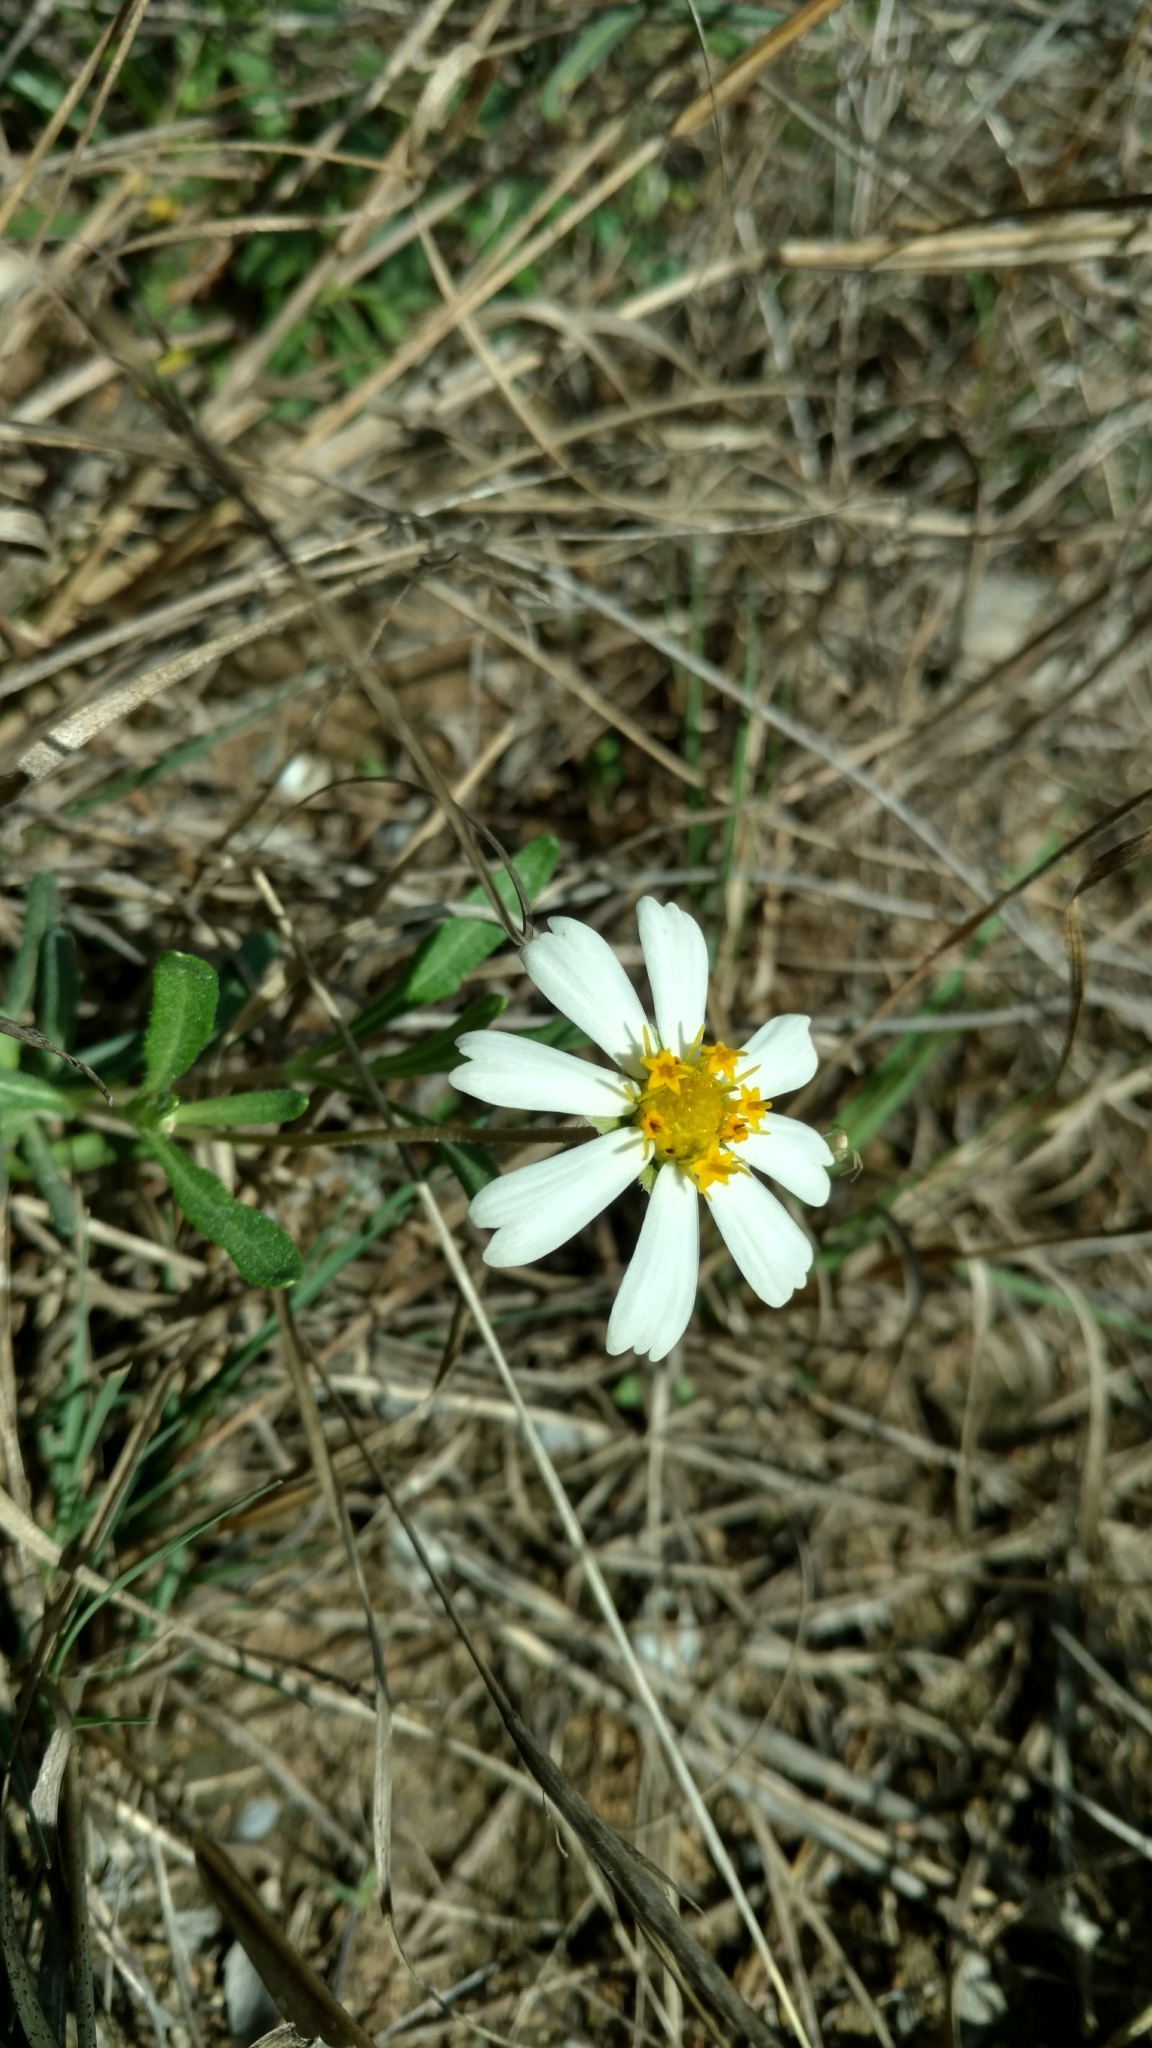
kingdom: Plantae
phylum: Tracheophyta
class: Magnoliopsida
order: Asterales
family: Asteraceae
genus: Melampodium
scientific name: Melampodium leucanthum
